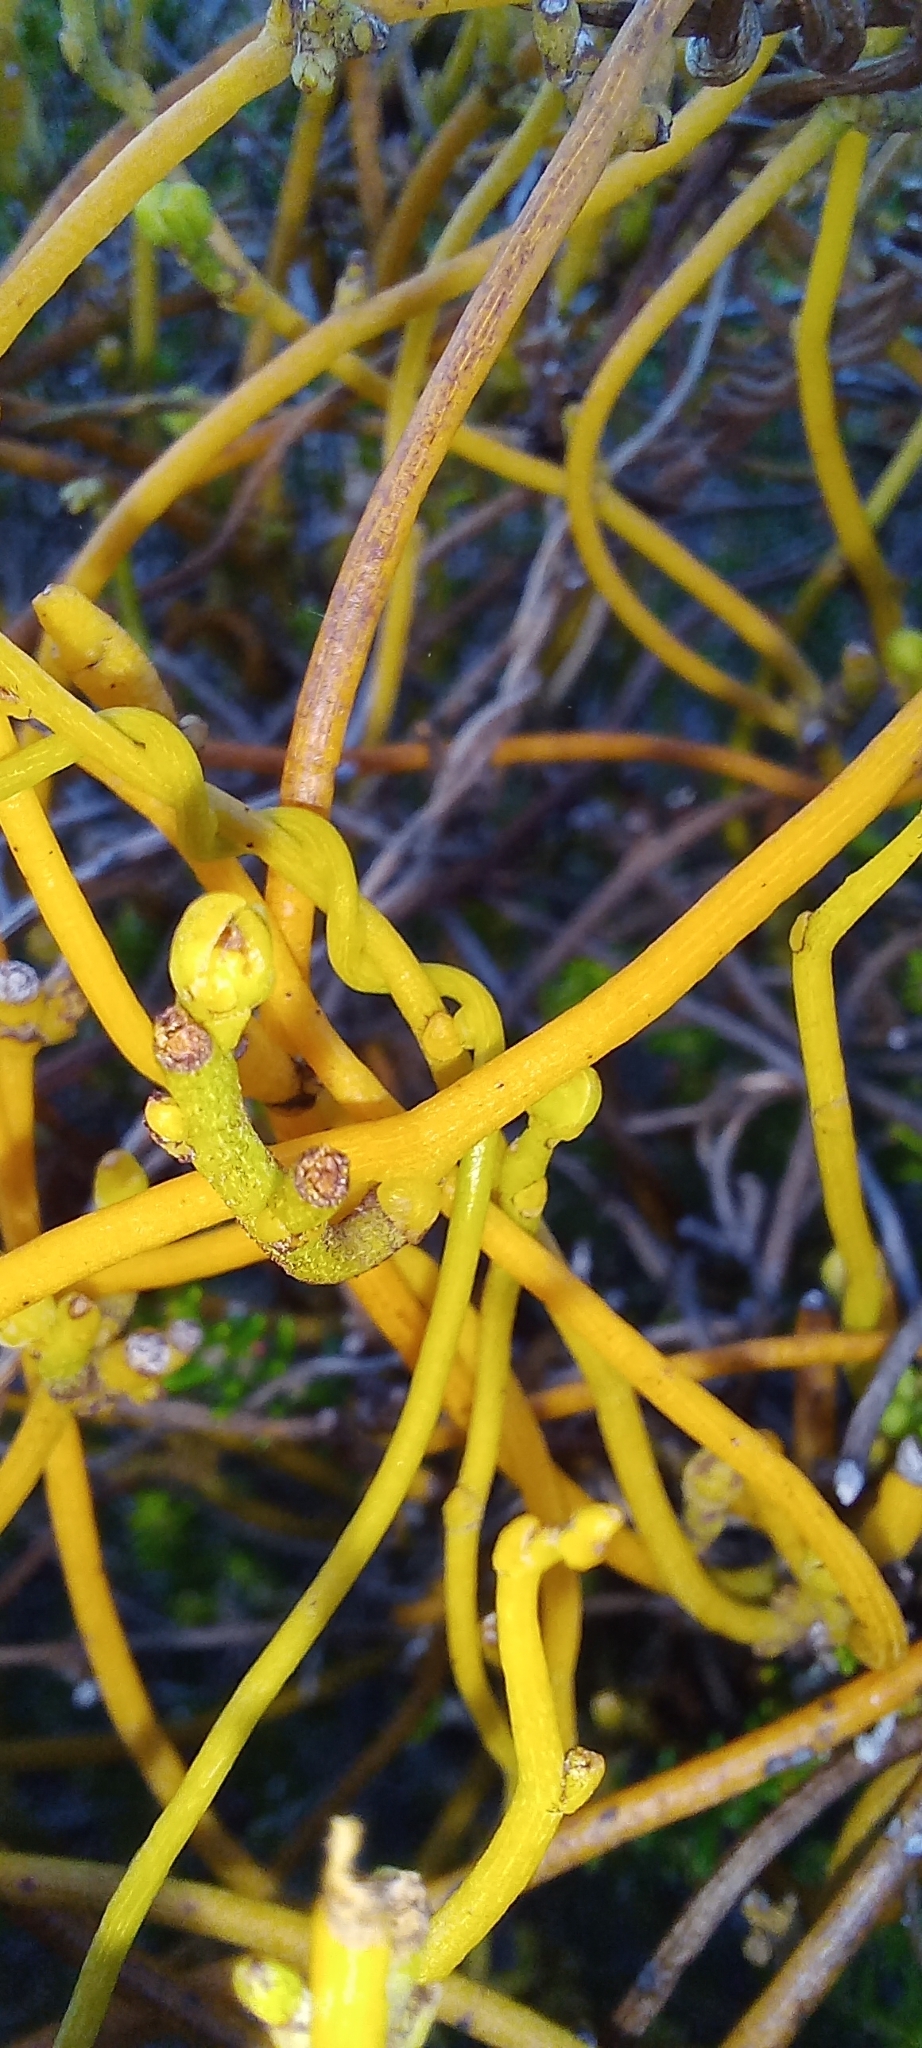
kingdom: Plantae
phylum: Tracheophyta
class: Magnoliopsida
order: Laurales
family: Lauraceae
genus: Cassytha
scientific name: Cassytha ciliolata
